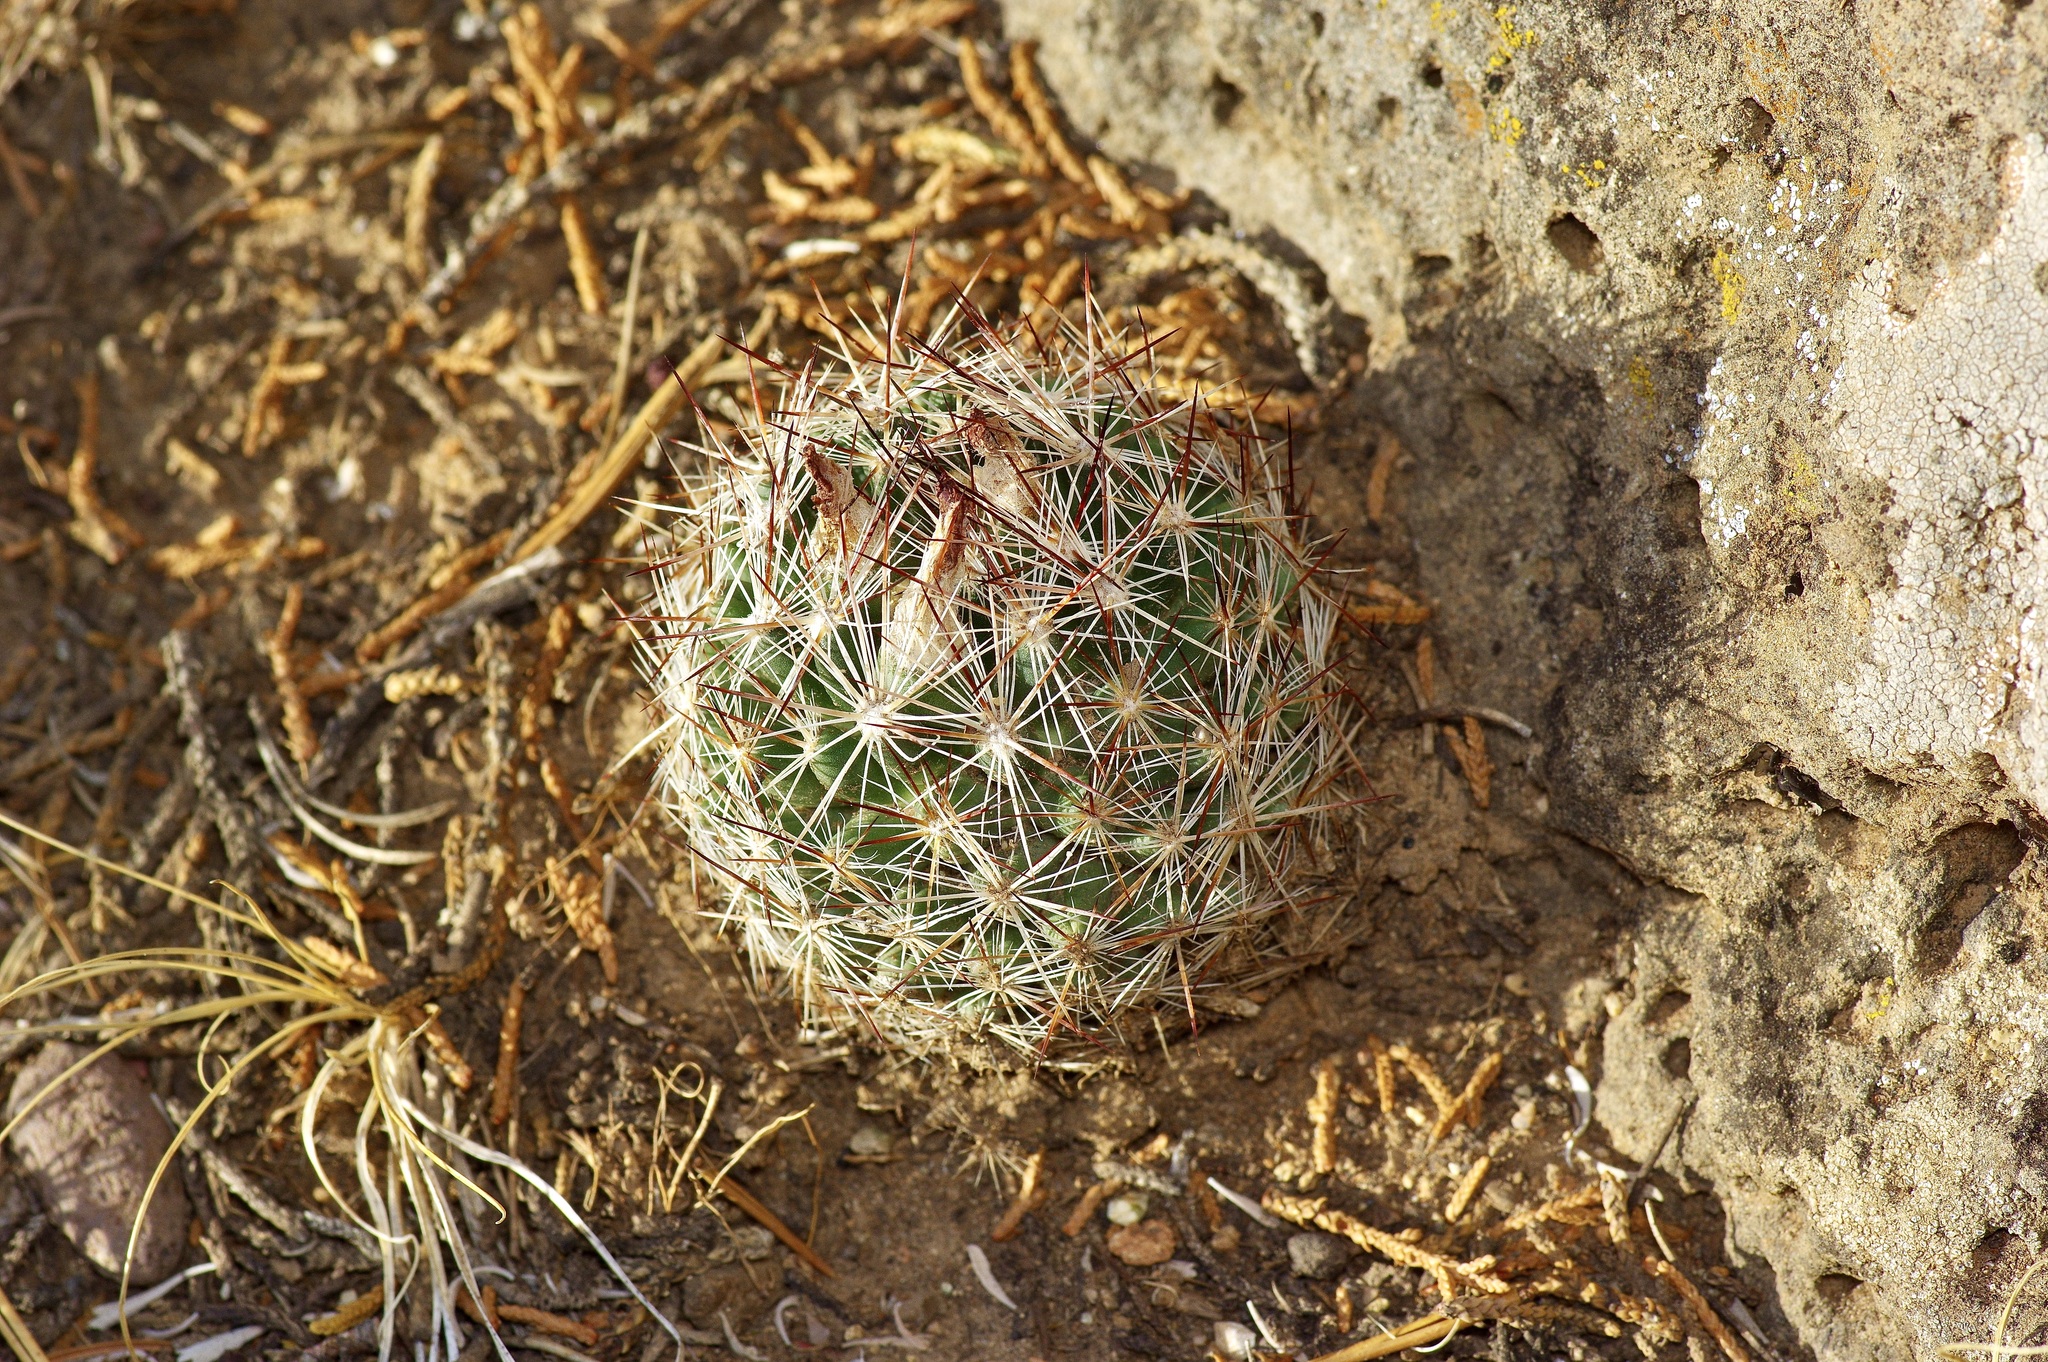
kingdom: Plantae
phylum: Tracheophyta
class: Magnoliopsida
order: Caryophyllales
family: Cactaceae
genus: Pelecyphora
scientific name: Pelecyphora vivipara
